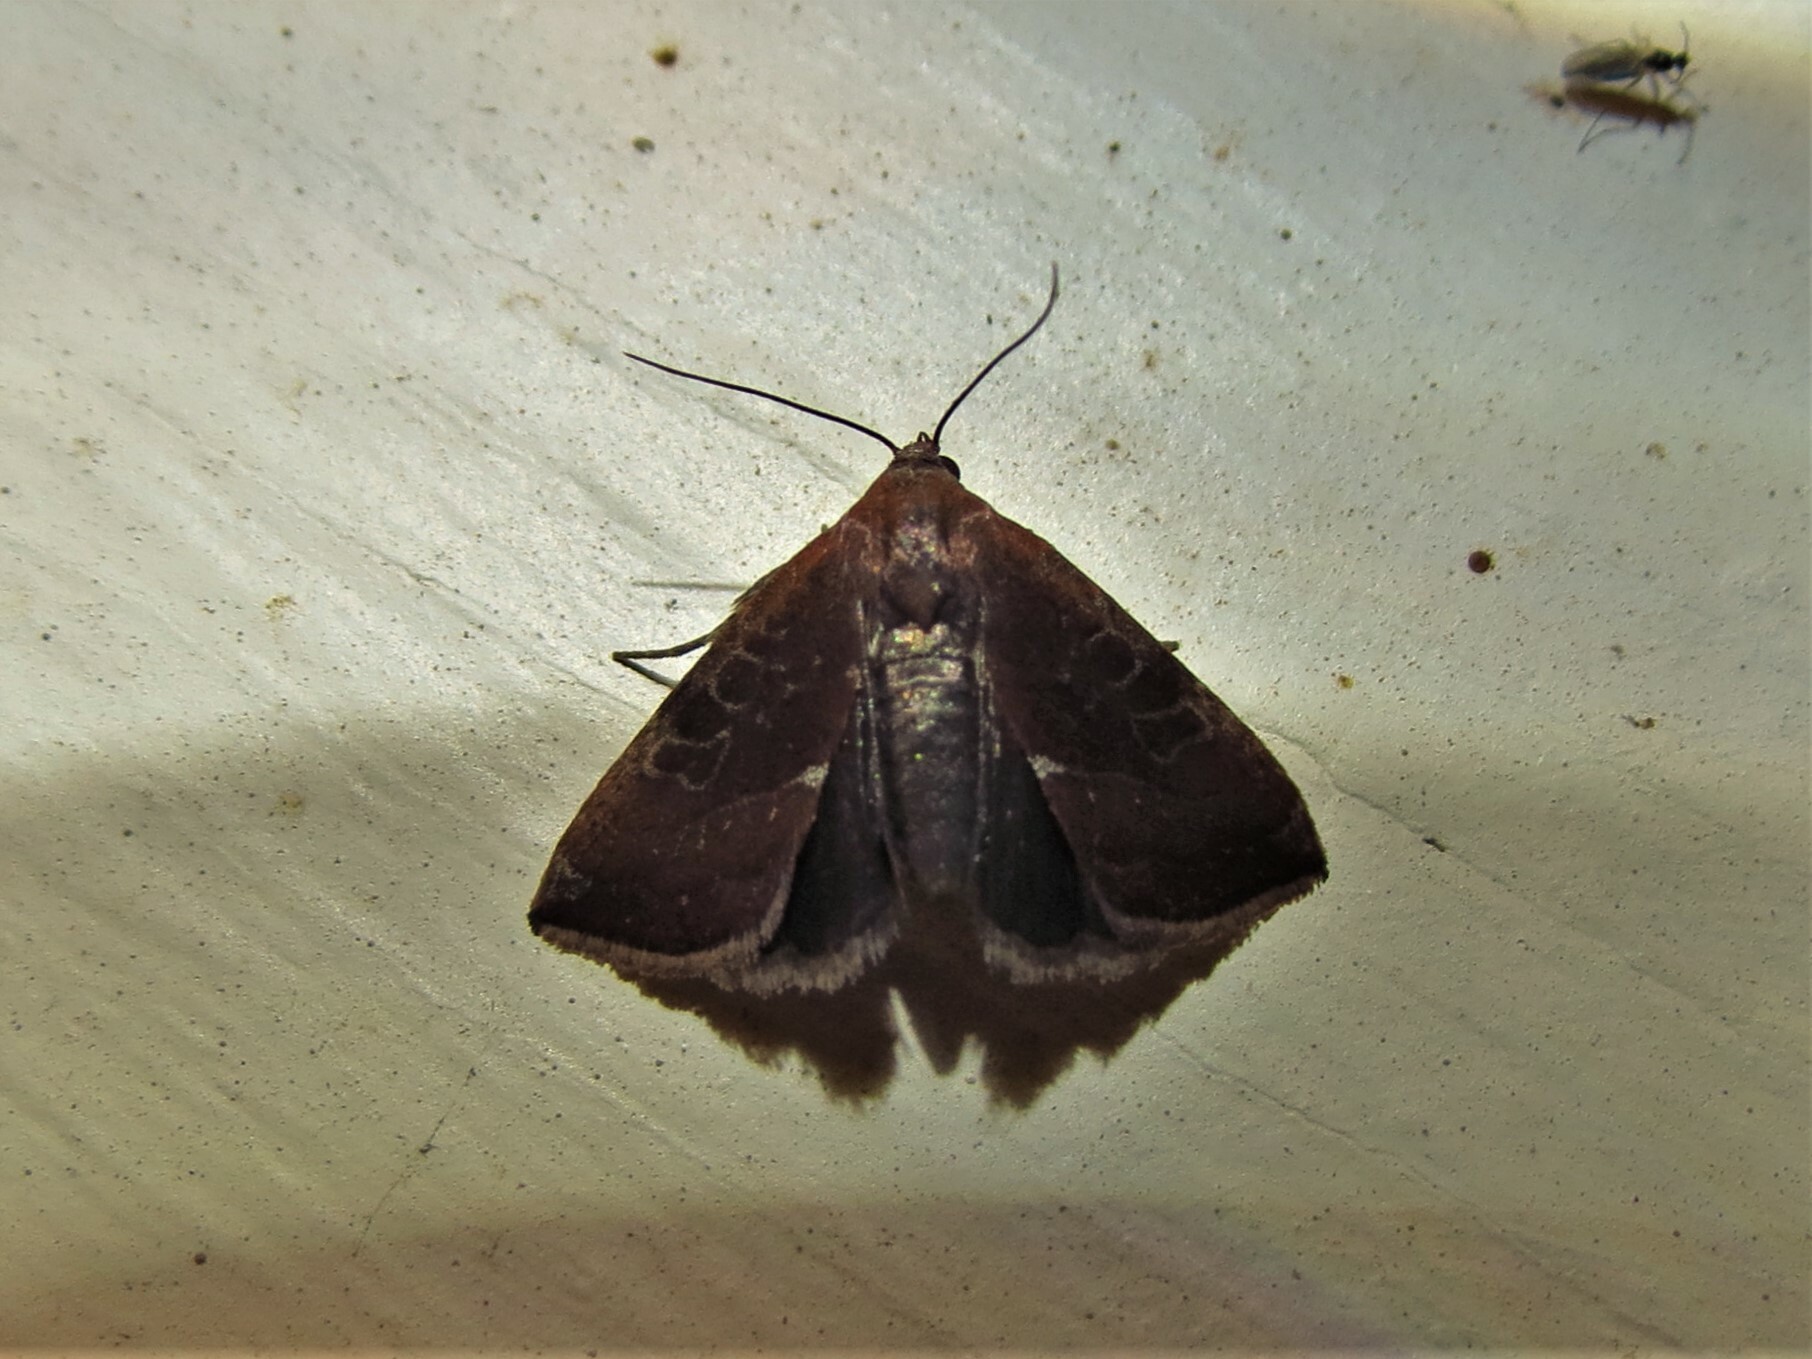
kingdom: Animalia
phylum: Arthropoda
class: Insecta
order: Lepidoptera
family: Noctuidae
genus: Galgula
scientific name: Galgula partita
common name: Wedgeling
